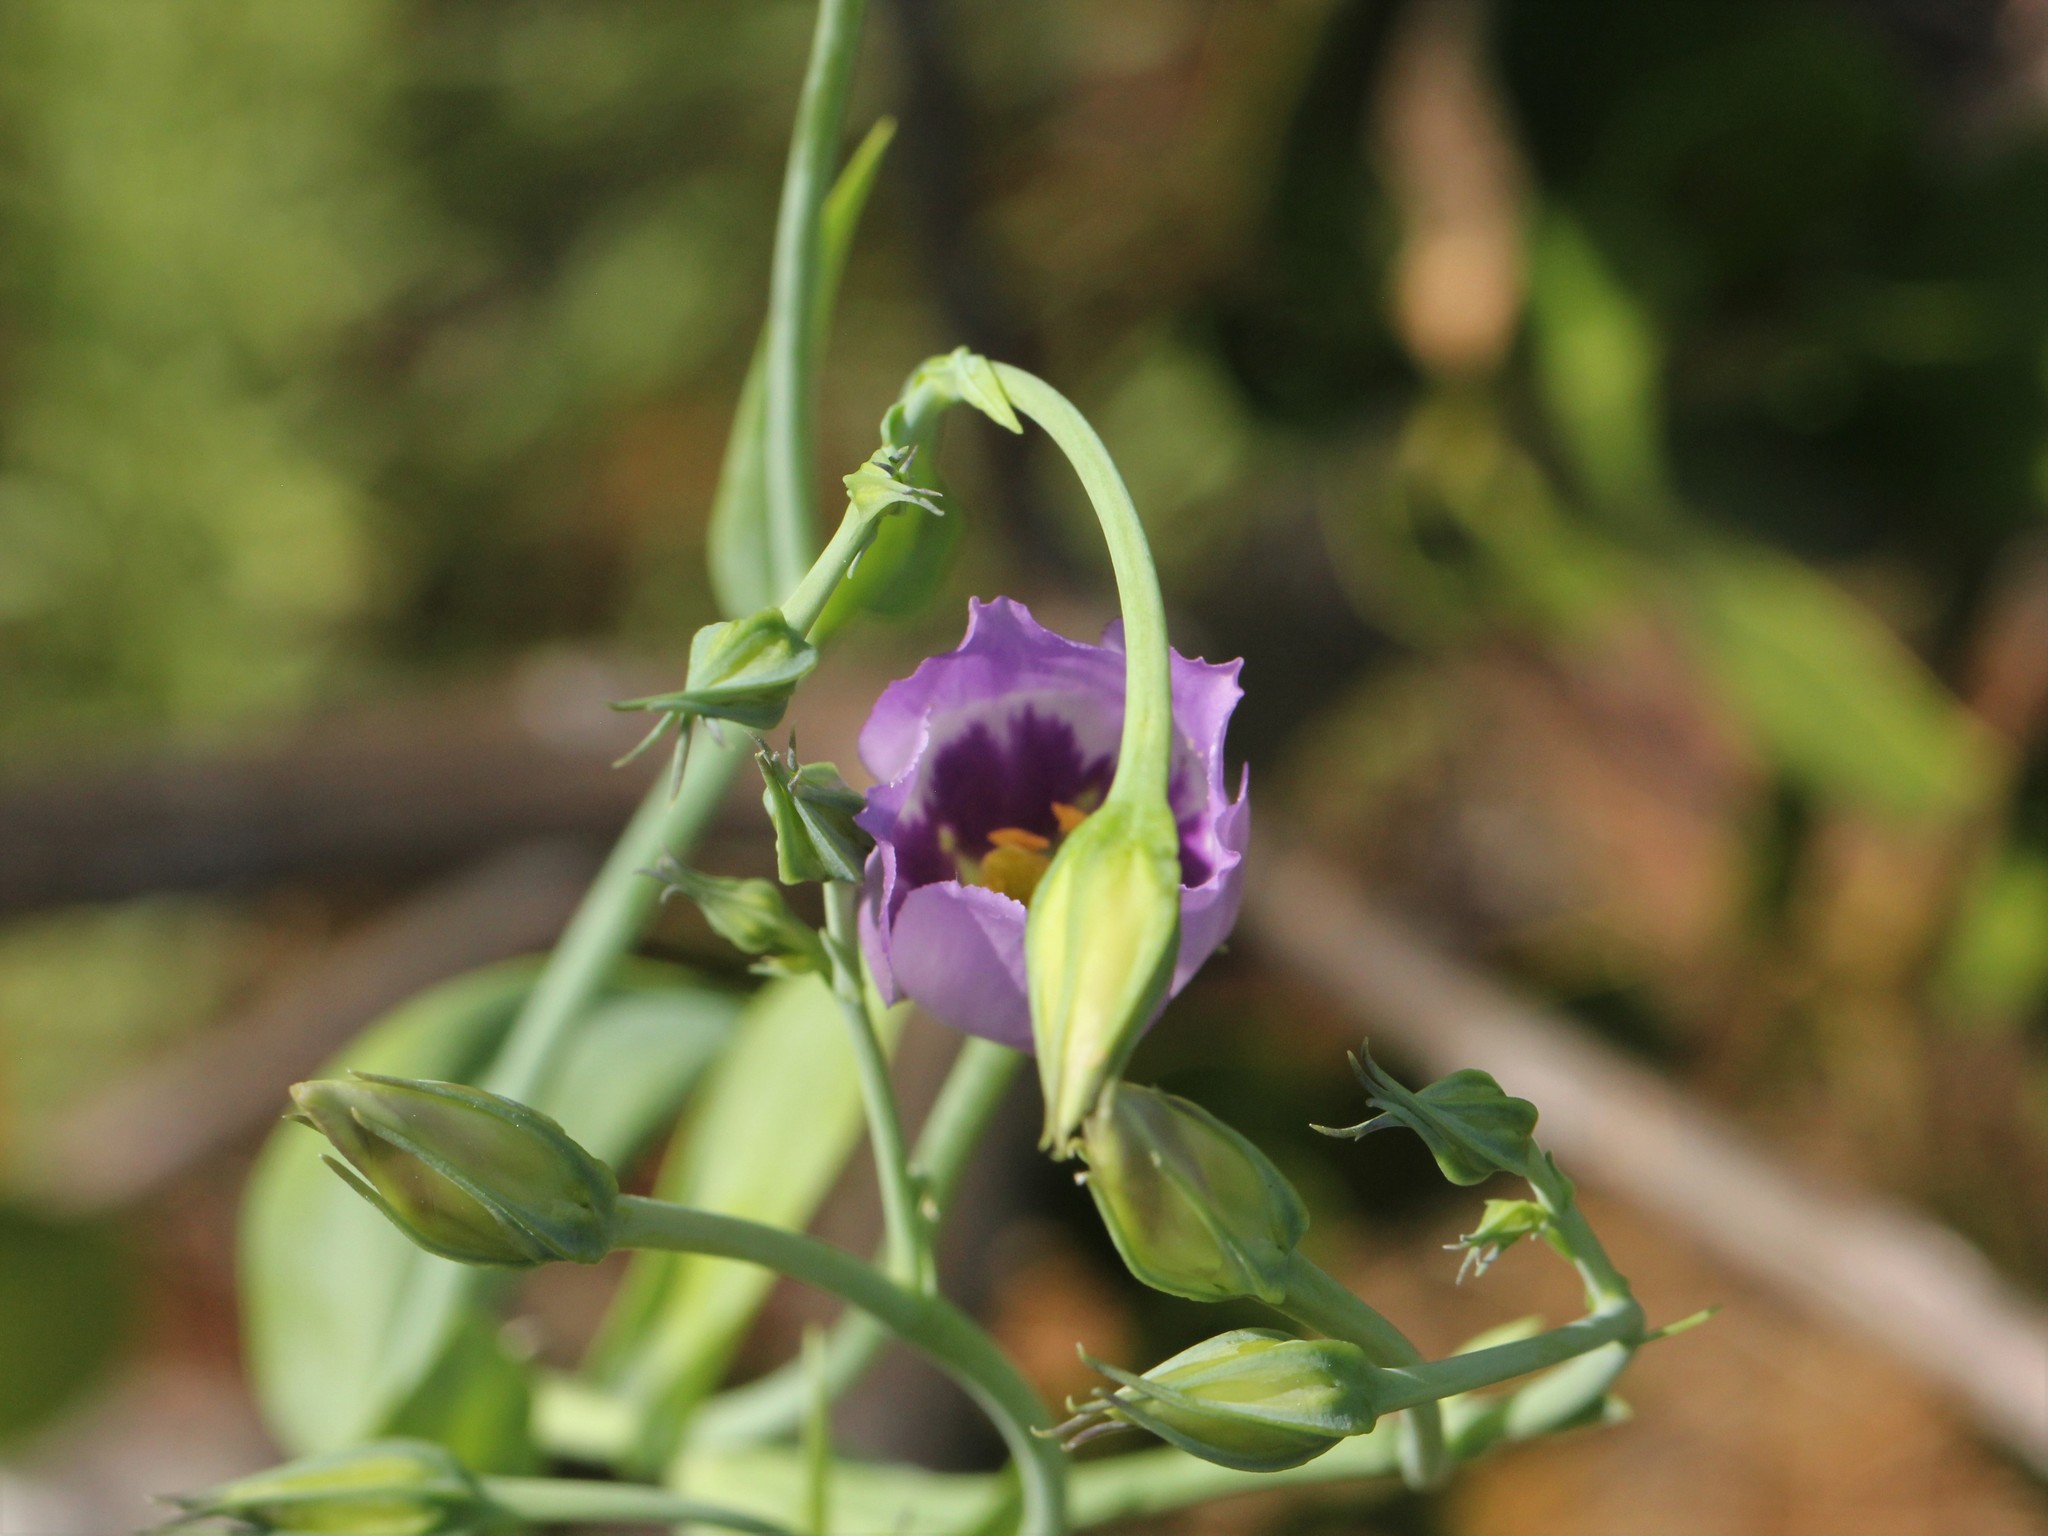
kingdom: Plantae
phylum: Tracheophyta
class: Magnoliopsida
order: Gentianales
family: Gentianaceae
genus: Eustoma
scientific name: Eustoma exaltatum
